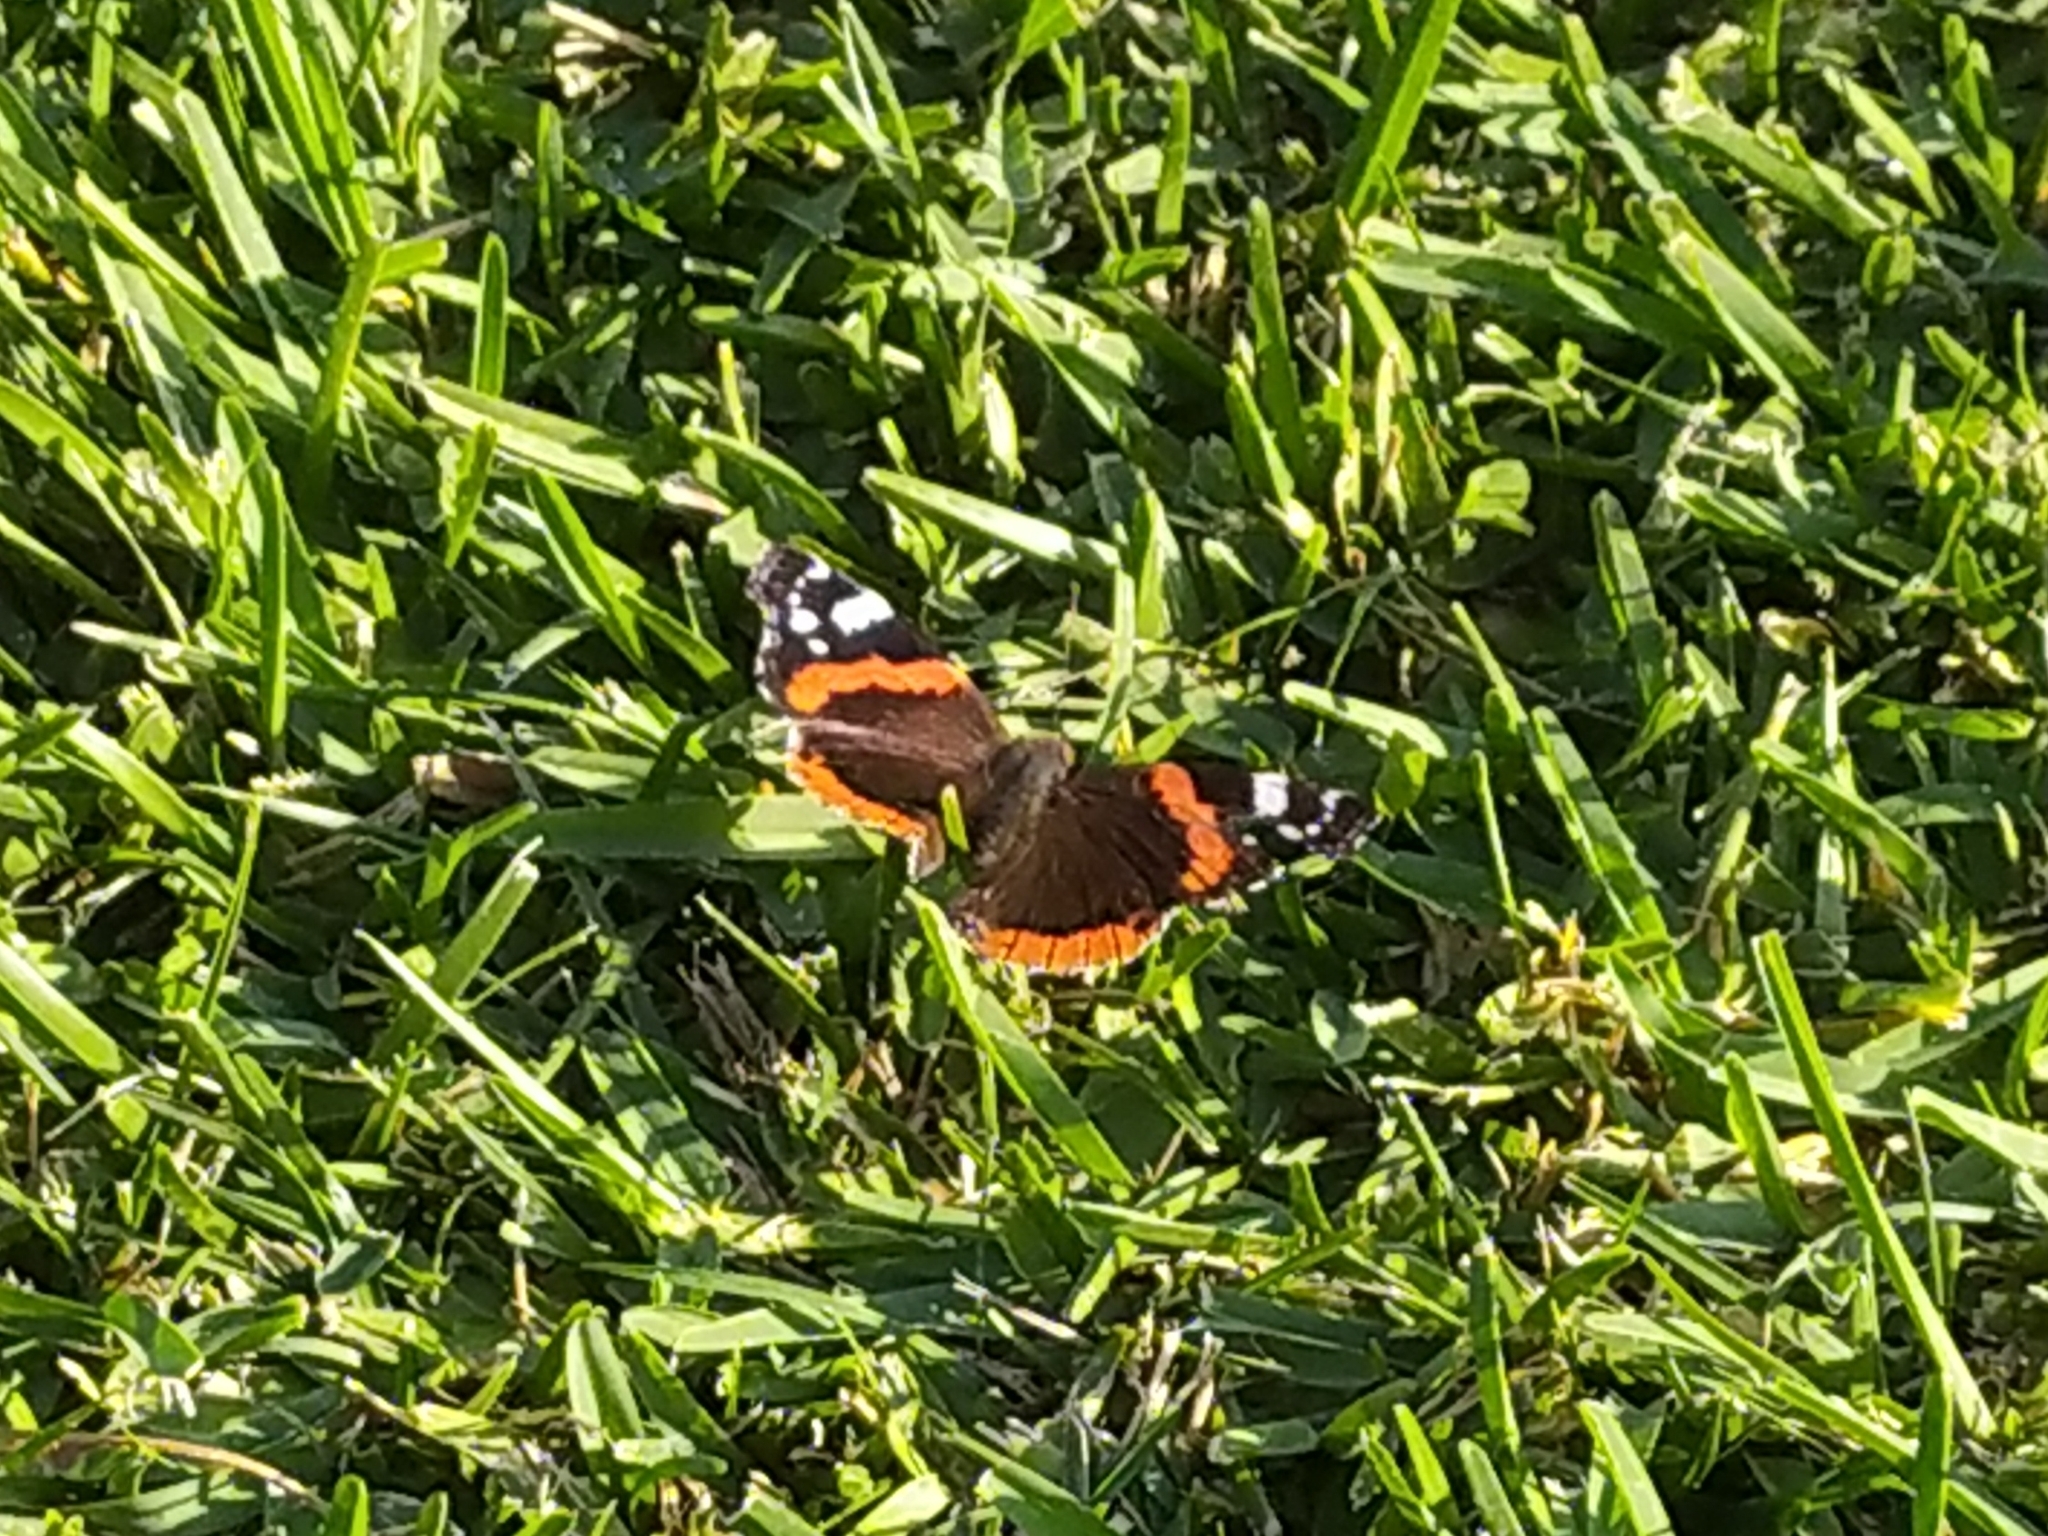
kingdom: Animalia
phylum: Arthropoda
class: Insecta
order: Lepidoptera
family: Nymphalidae
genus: Vanessa
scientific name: Vanessa atalanta
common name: Red admiral
